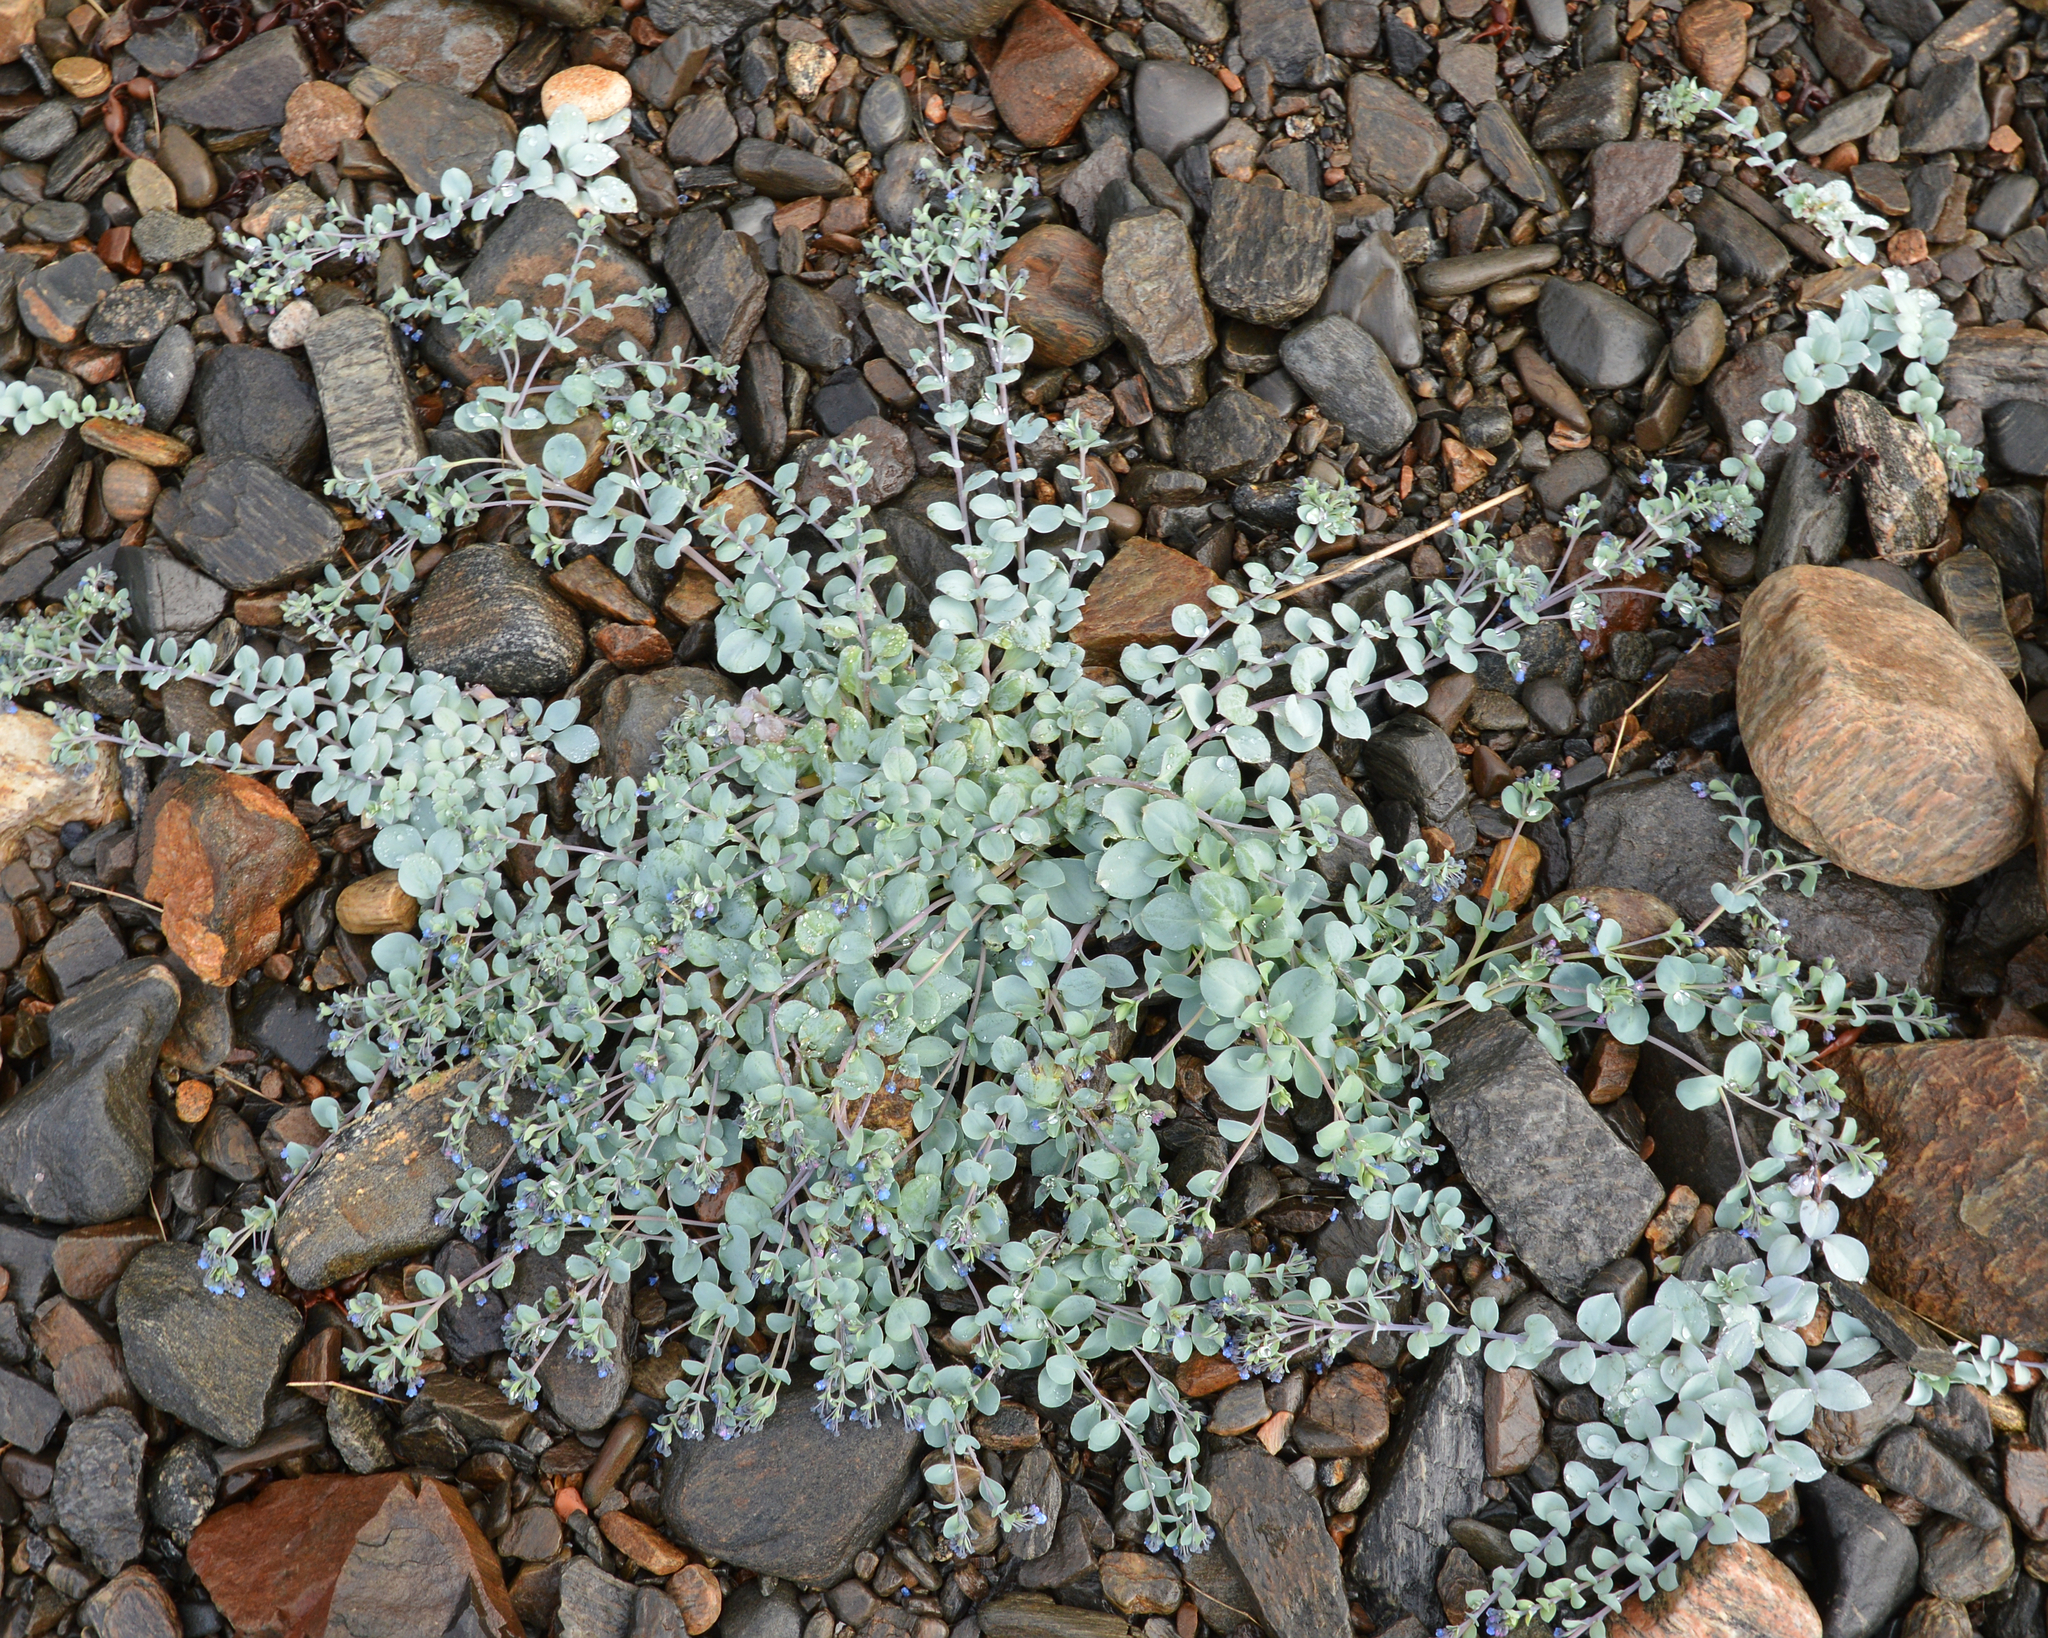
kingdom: Plantae
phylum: Tracheophyta
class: Magnoliopsida
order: Boraginales
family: Boraginaceae
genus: Mertensia
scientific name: Mertensia maritima
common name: Oysterplant
